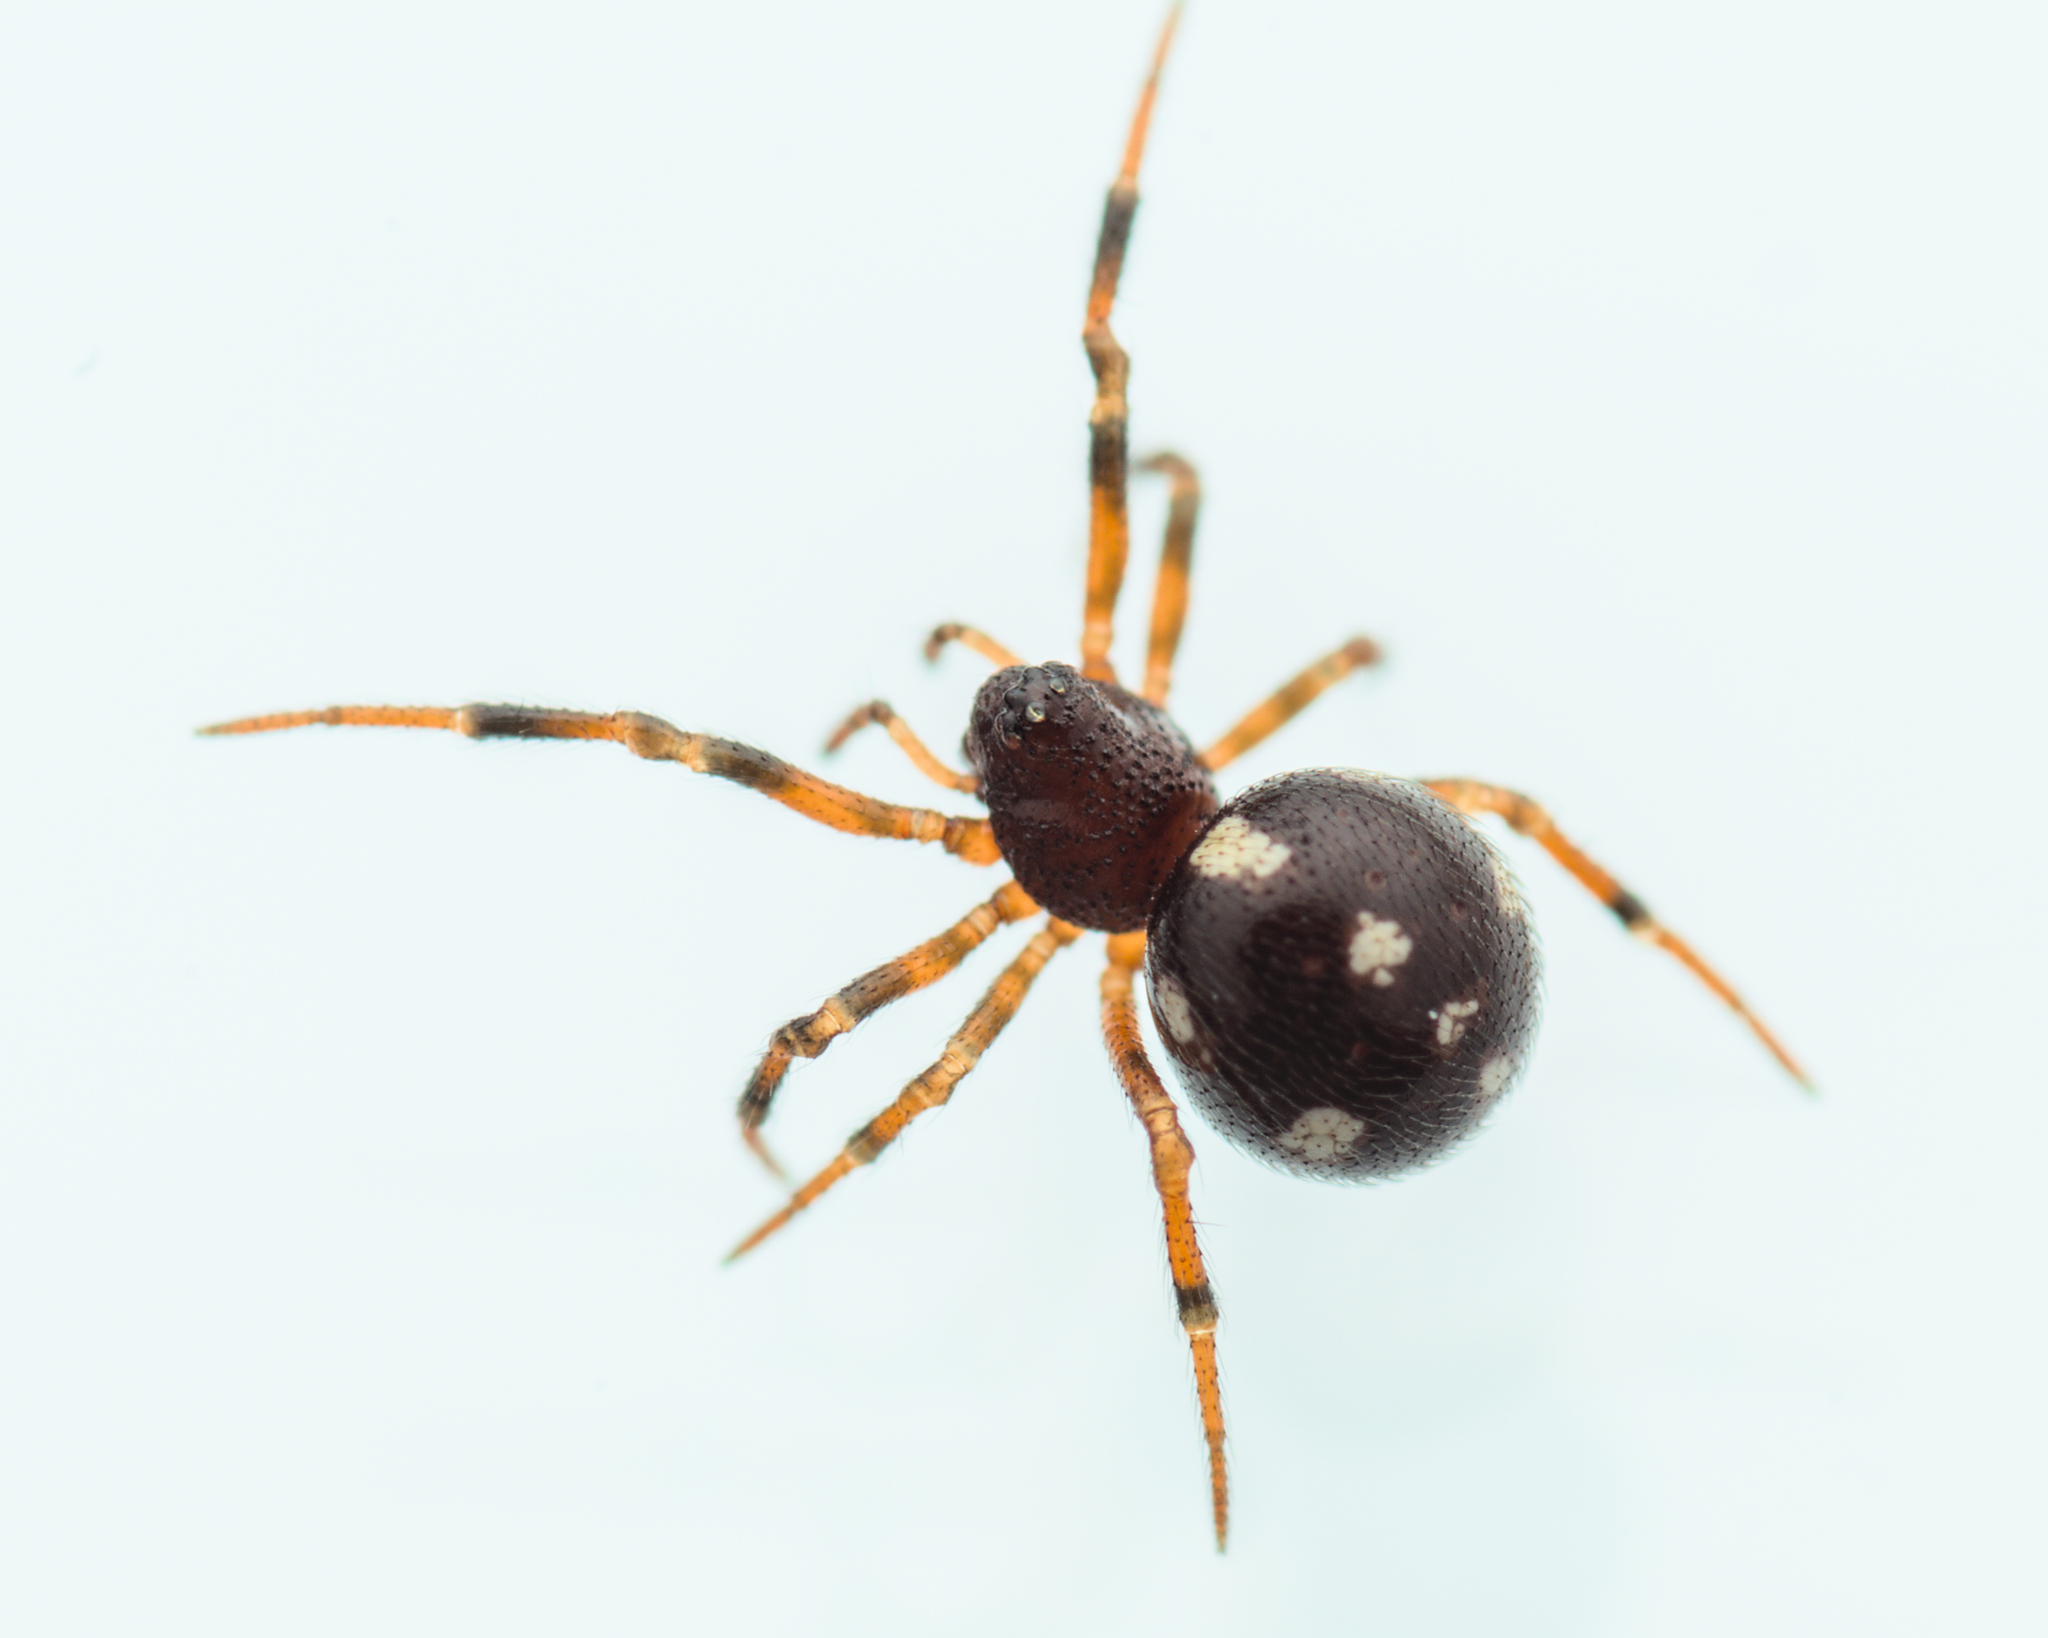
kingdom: Animalia
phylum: Arthropoda
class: Arachnida
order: Araneae
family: Theridiidae
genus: Crustulina
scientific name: Crustulina guttata
